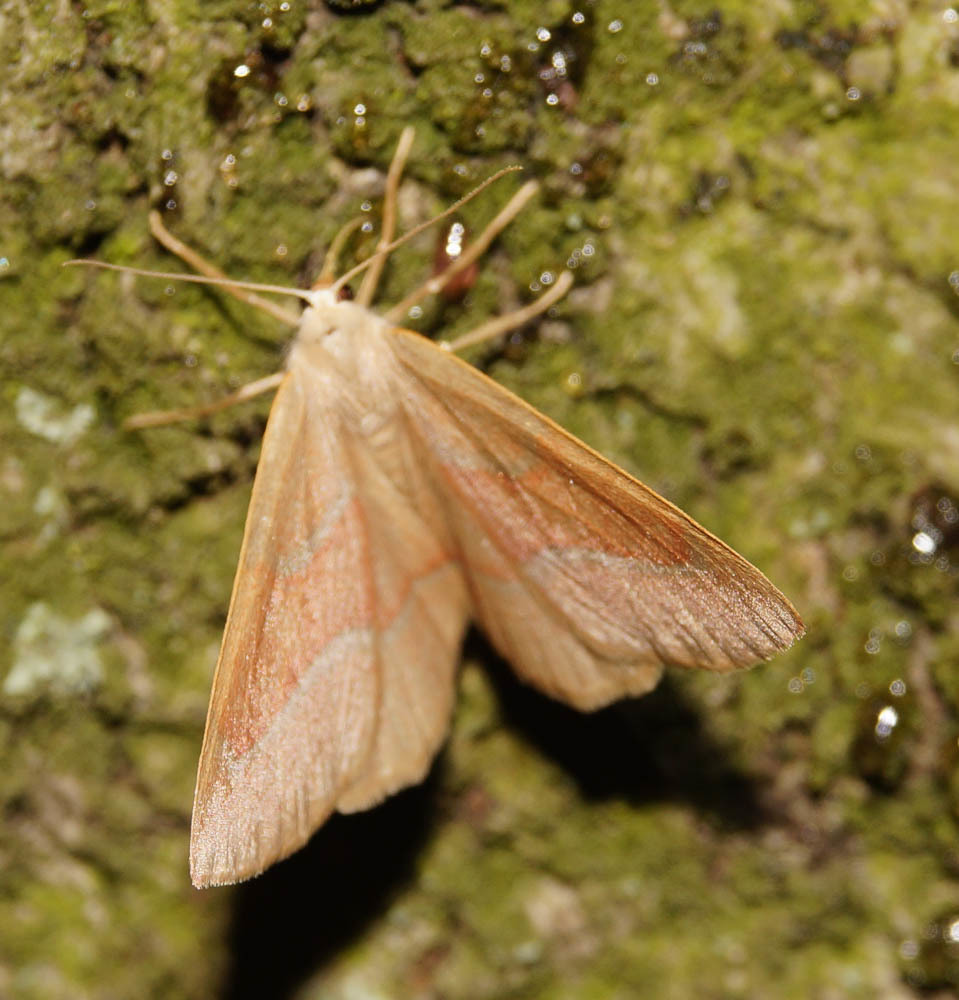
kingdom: Animalia
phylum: Arthropoda
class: Insecta
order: Lepidoptera
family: Geometridae
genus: Hylaea
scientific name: Hylaea fasciaria
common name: Barred red
